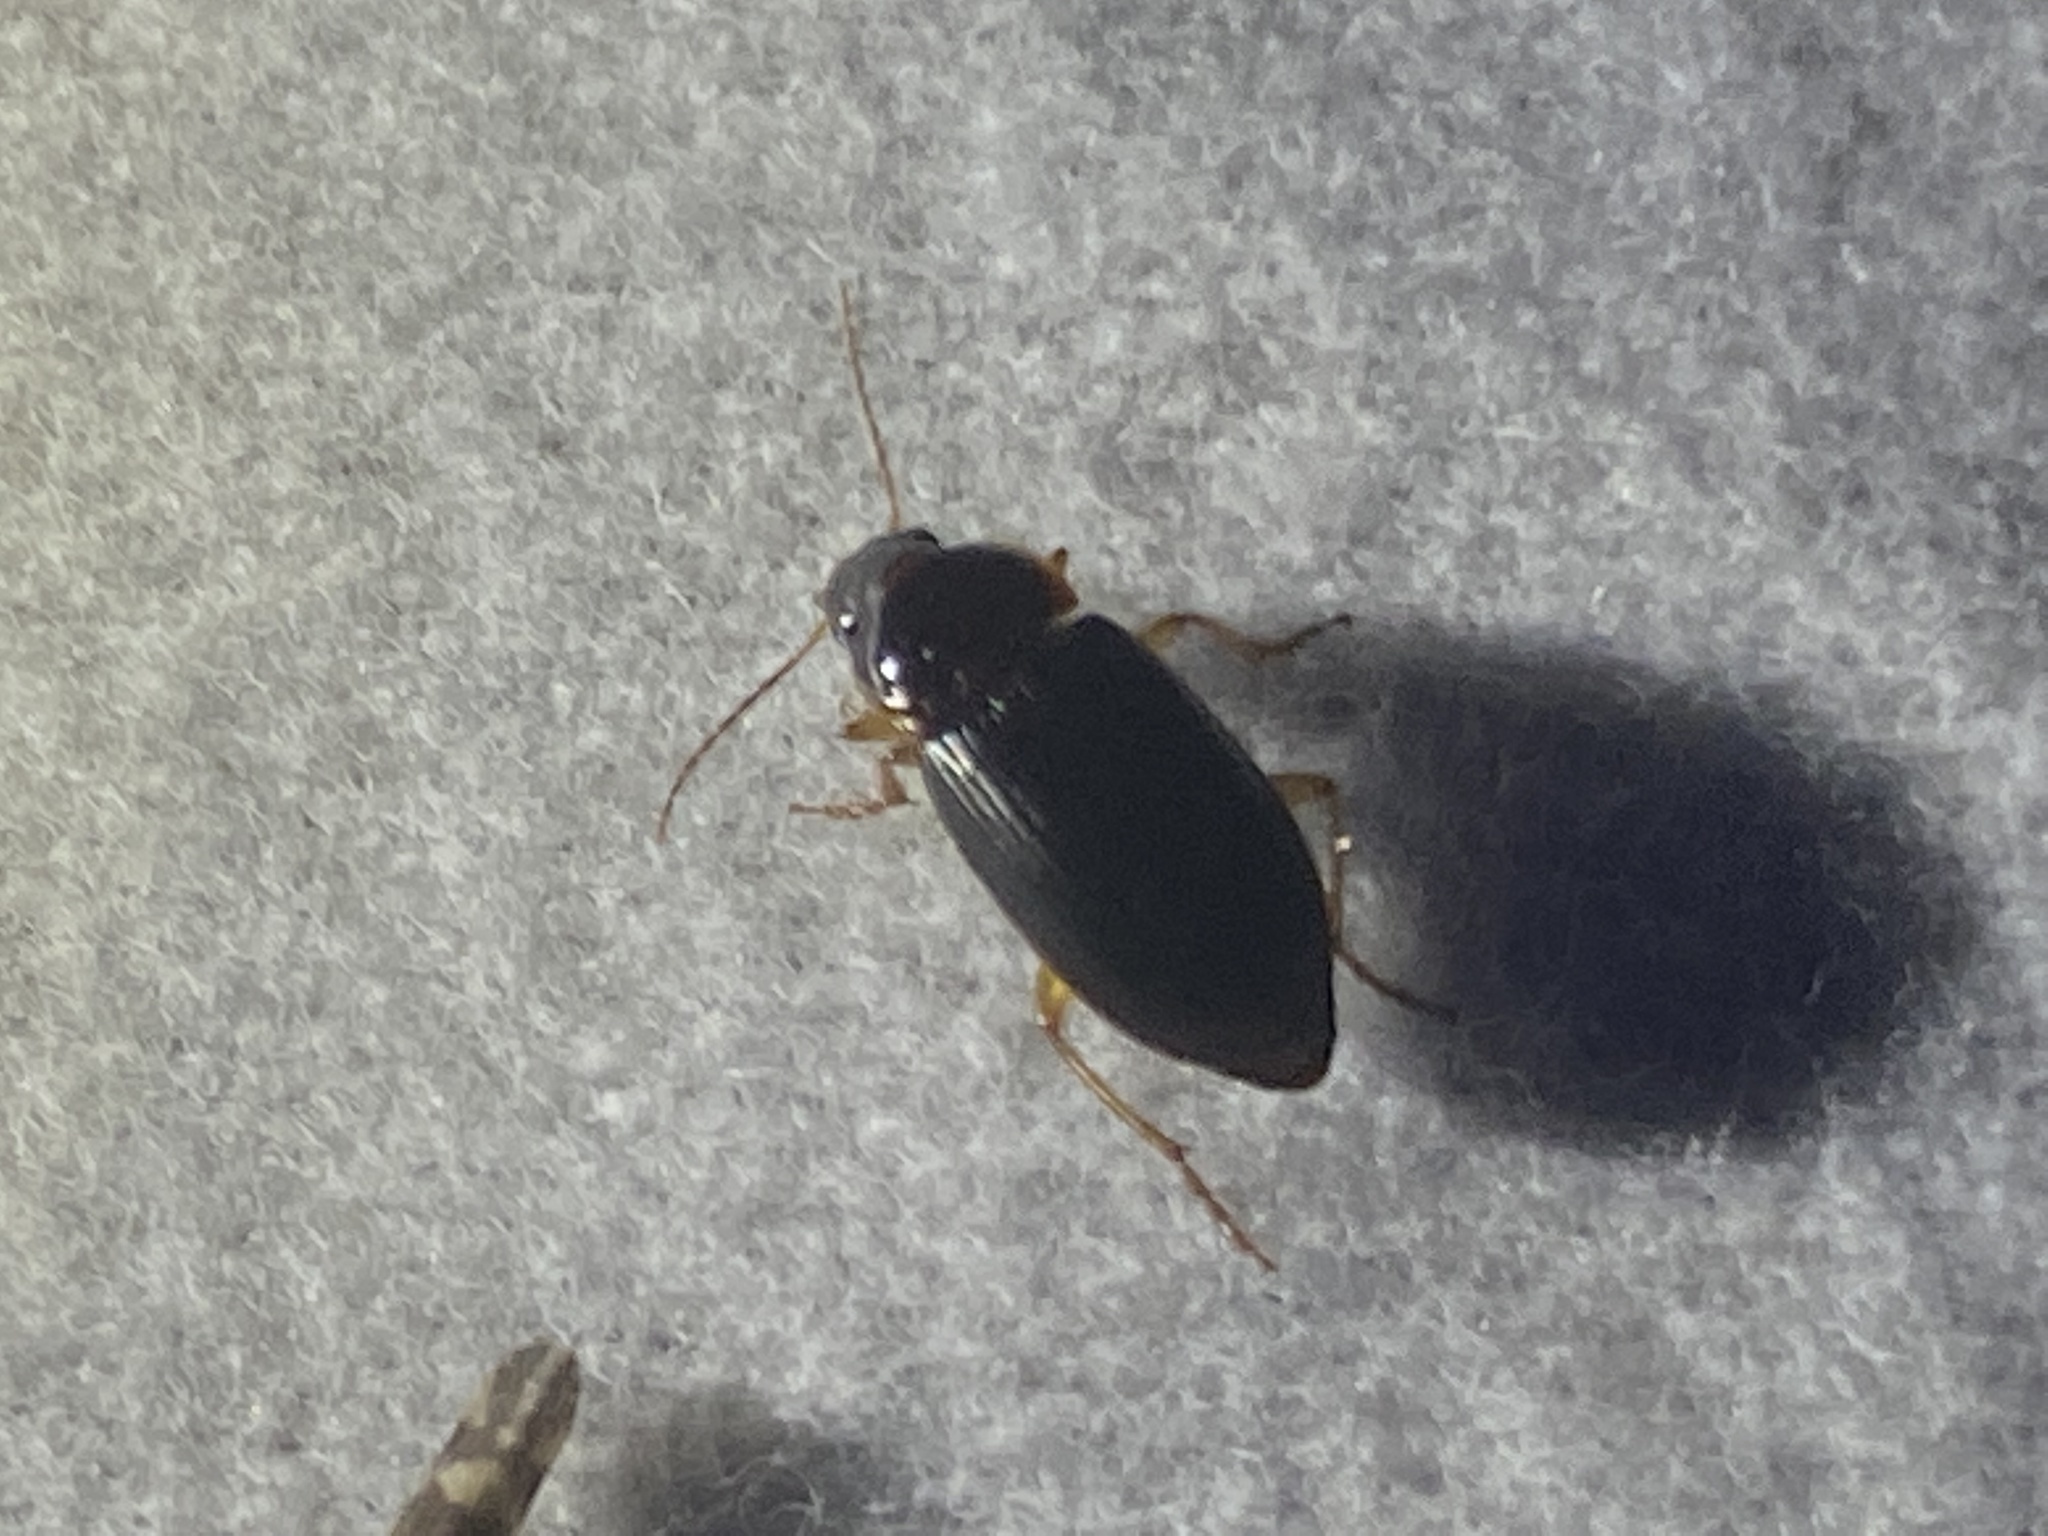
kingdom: Animalia
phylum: Arthropoda
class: Insecta
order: Coleoptera
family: Carabidae
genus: Notiobia
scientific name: Notiobia terminata
